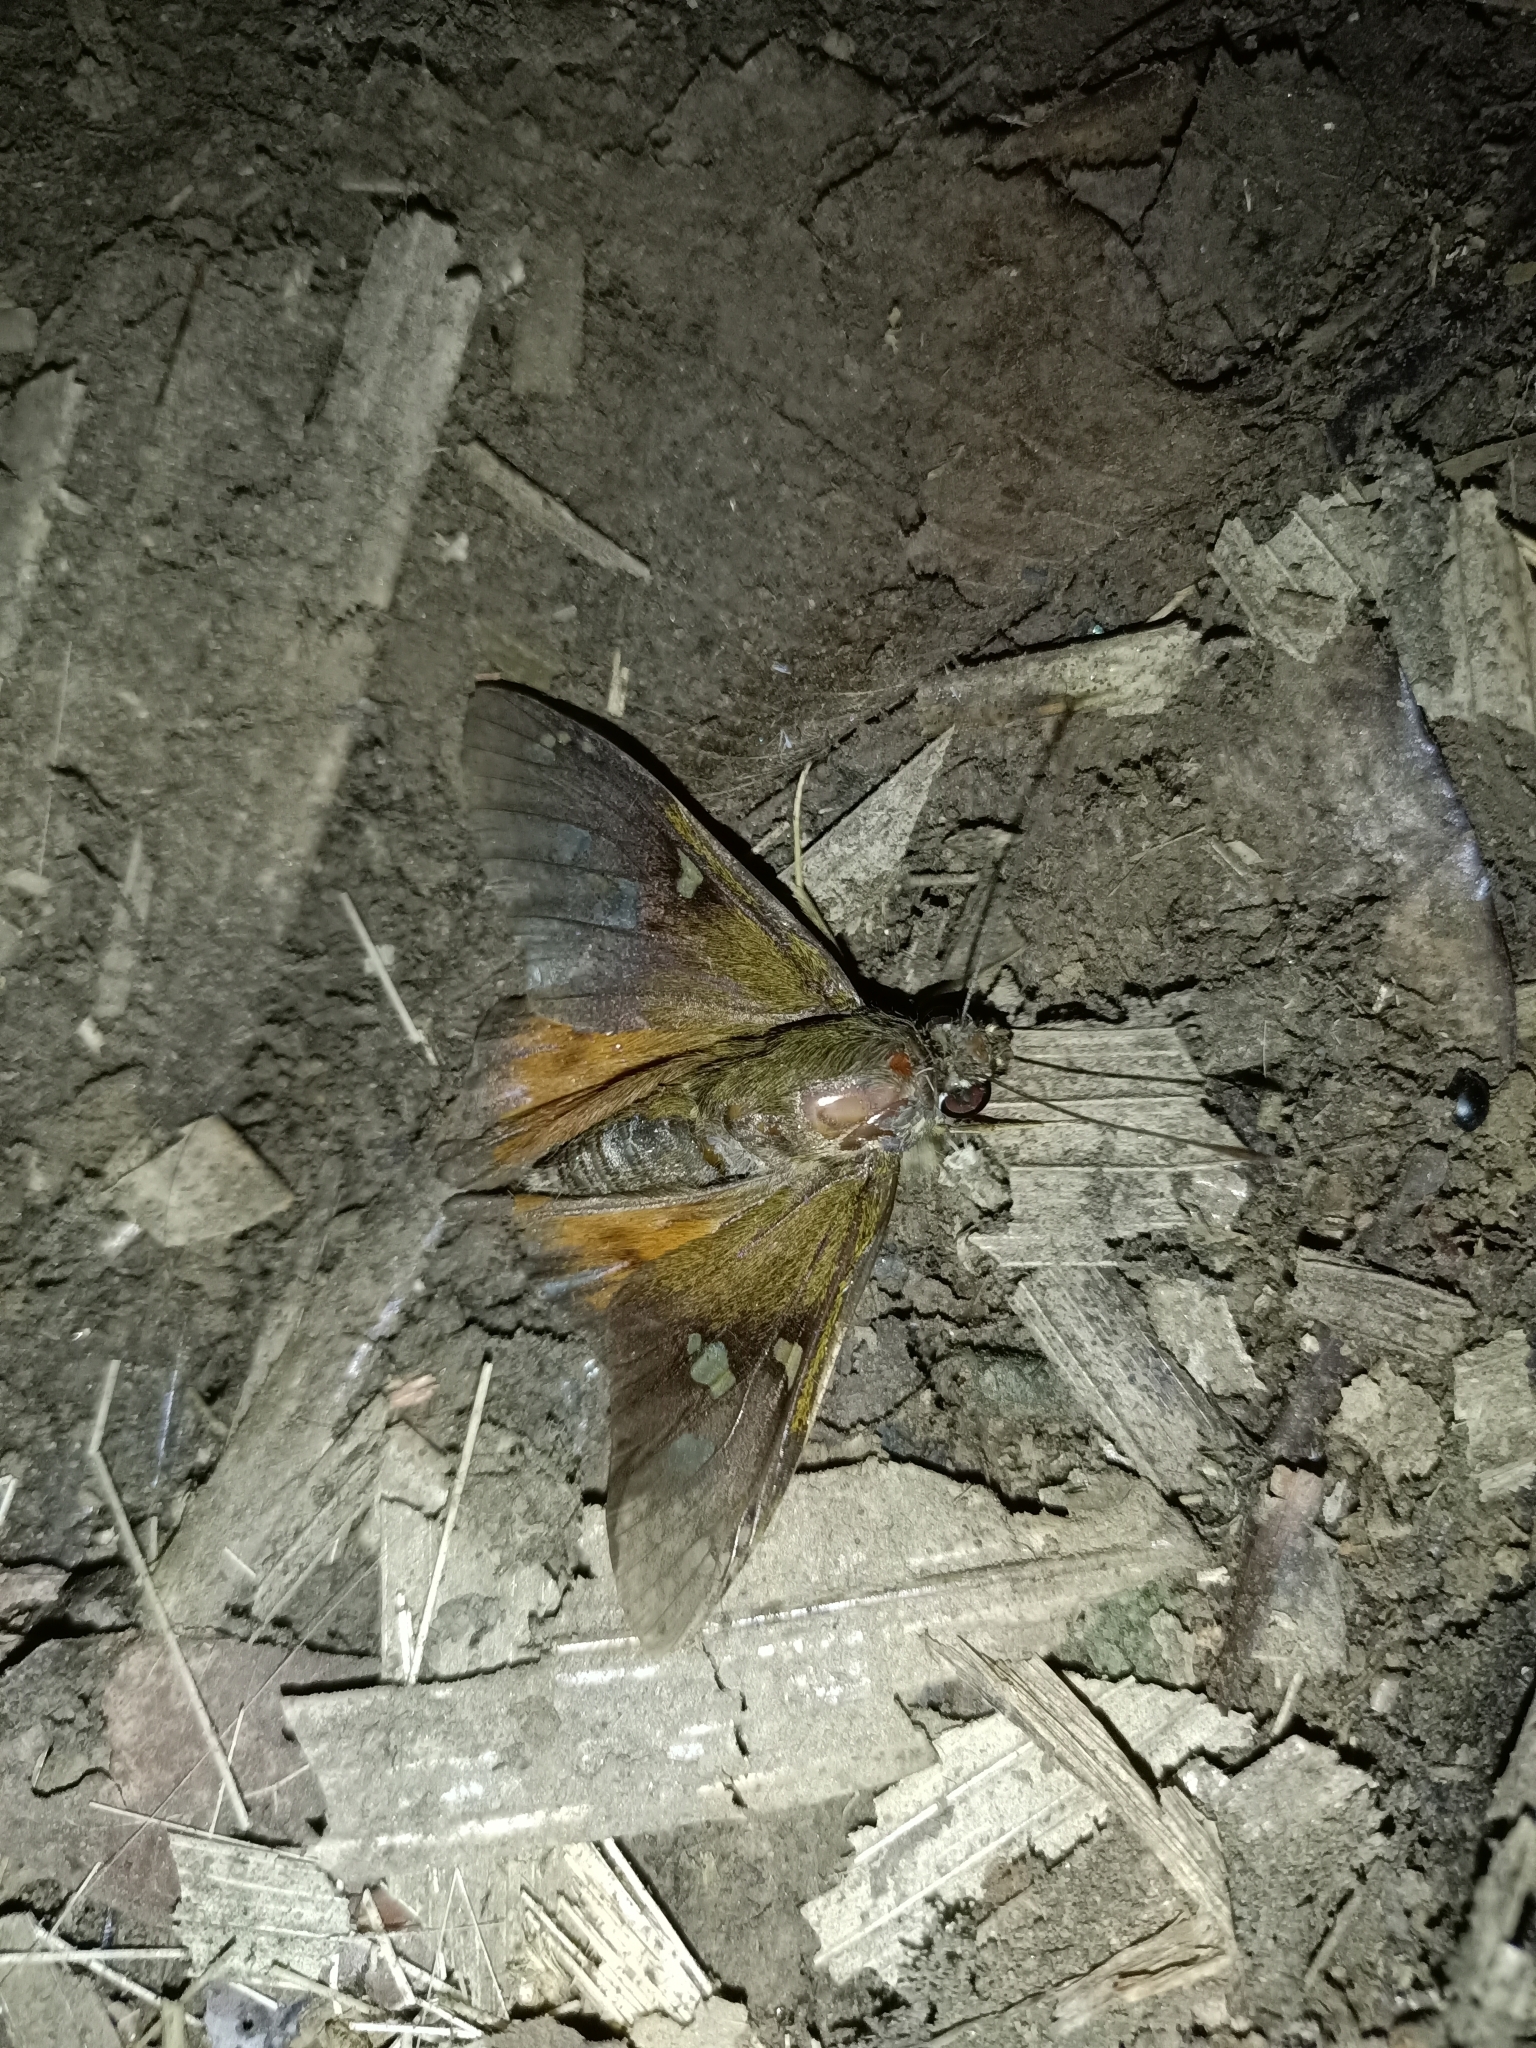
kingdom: Animalia
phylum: Arthropoda
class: Insecta
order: Lepidoptera
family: Hesperiidae
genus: Nascus
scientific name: Nascus phintias
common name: Schaus's scarlet-eye
